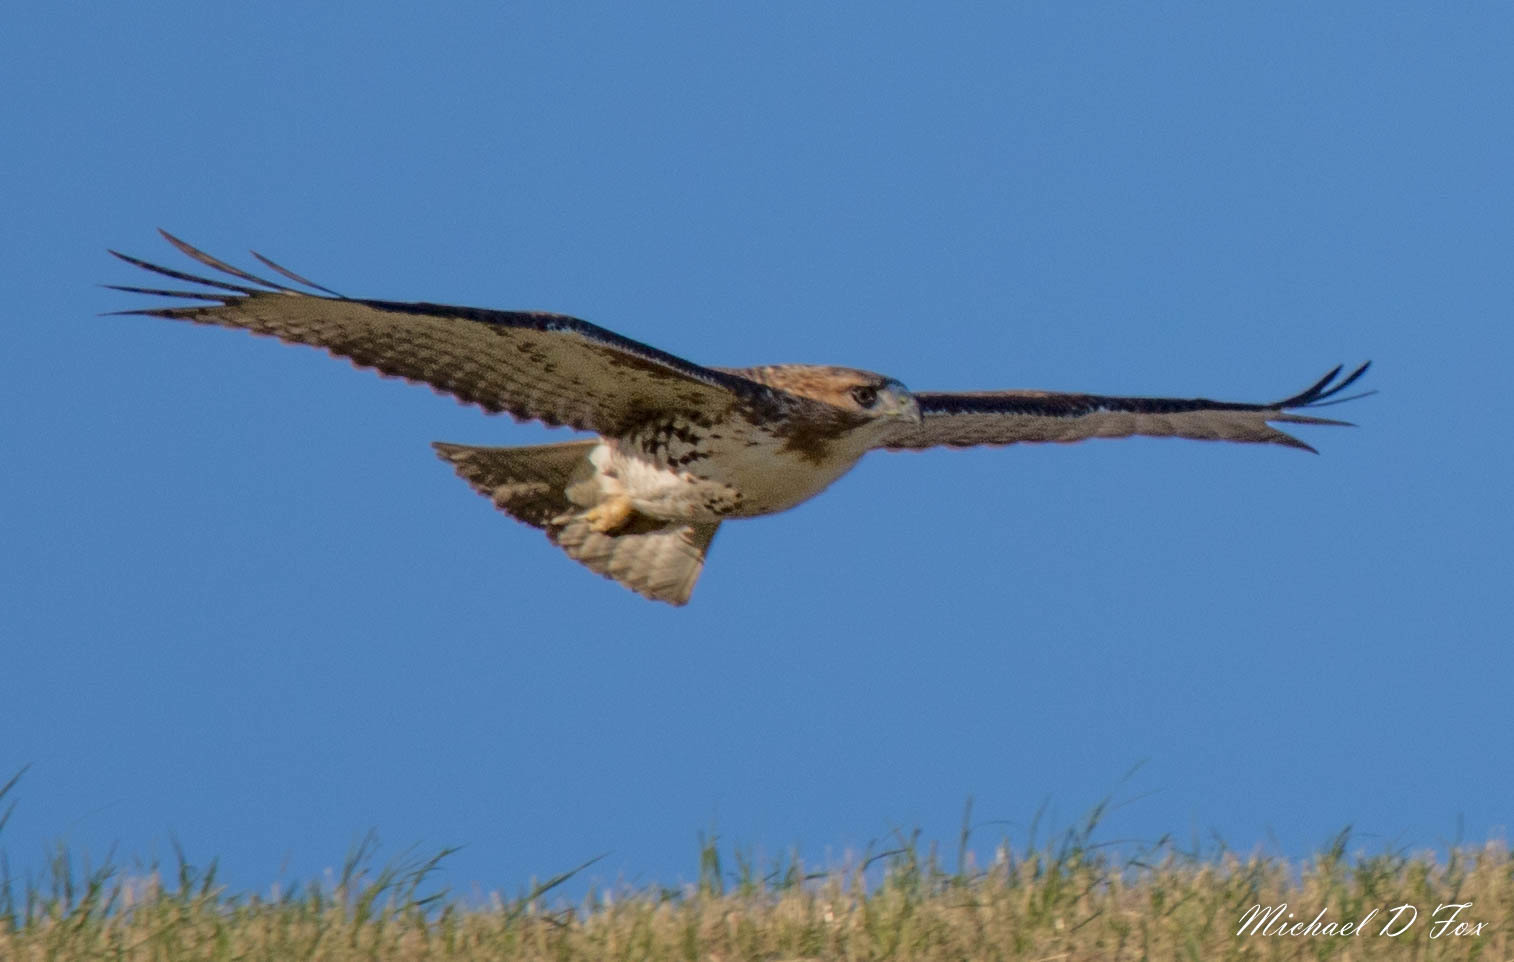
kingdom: Animalia
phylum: Chordata
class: Aves
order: Accipitriformes
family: Accipitridae
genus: Buteo
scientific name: Buteo jamaicensis
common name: Red-tailed hawk
